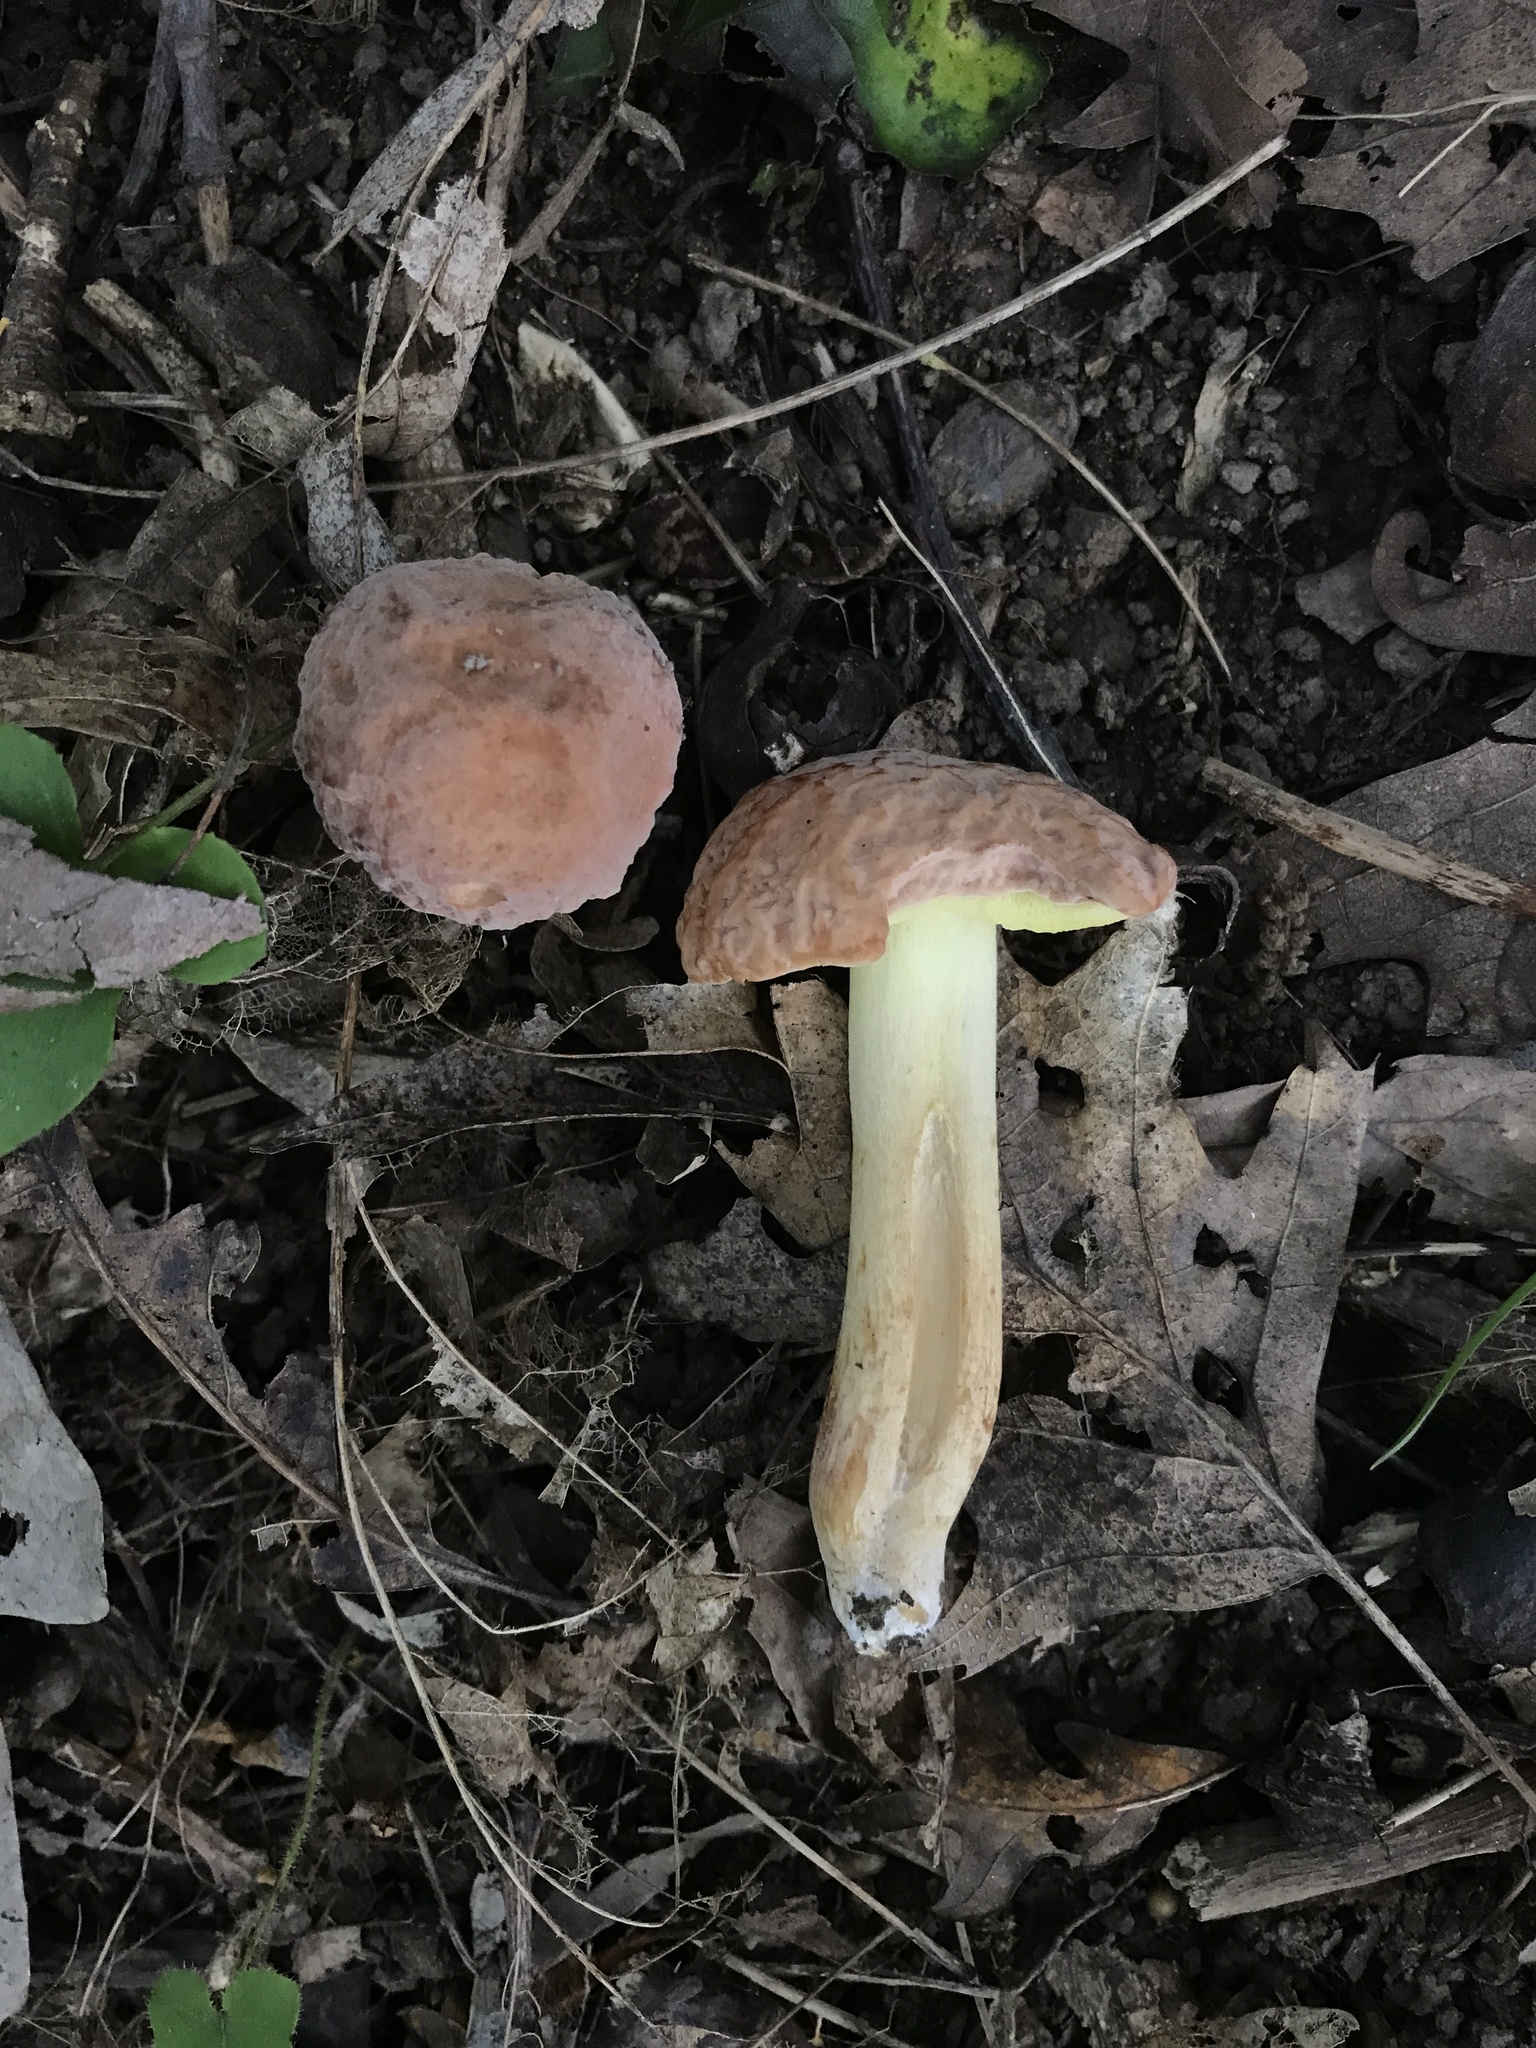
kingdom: Fungi
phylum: Basidiomycota
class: Agaricomycetes
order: Boletales
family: Boletaceae
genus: Hemileccinum
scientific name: Hemileccinum hortonii
